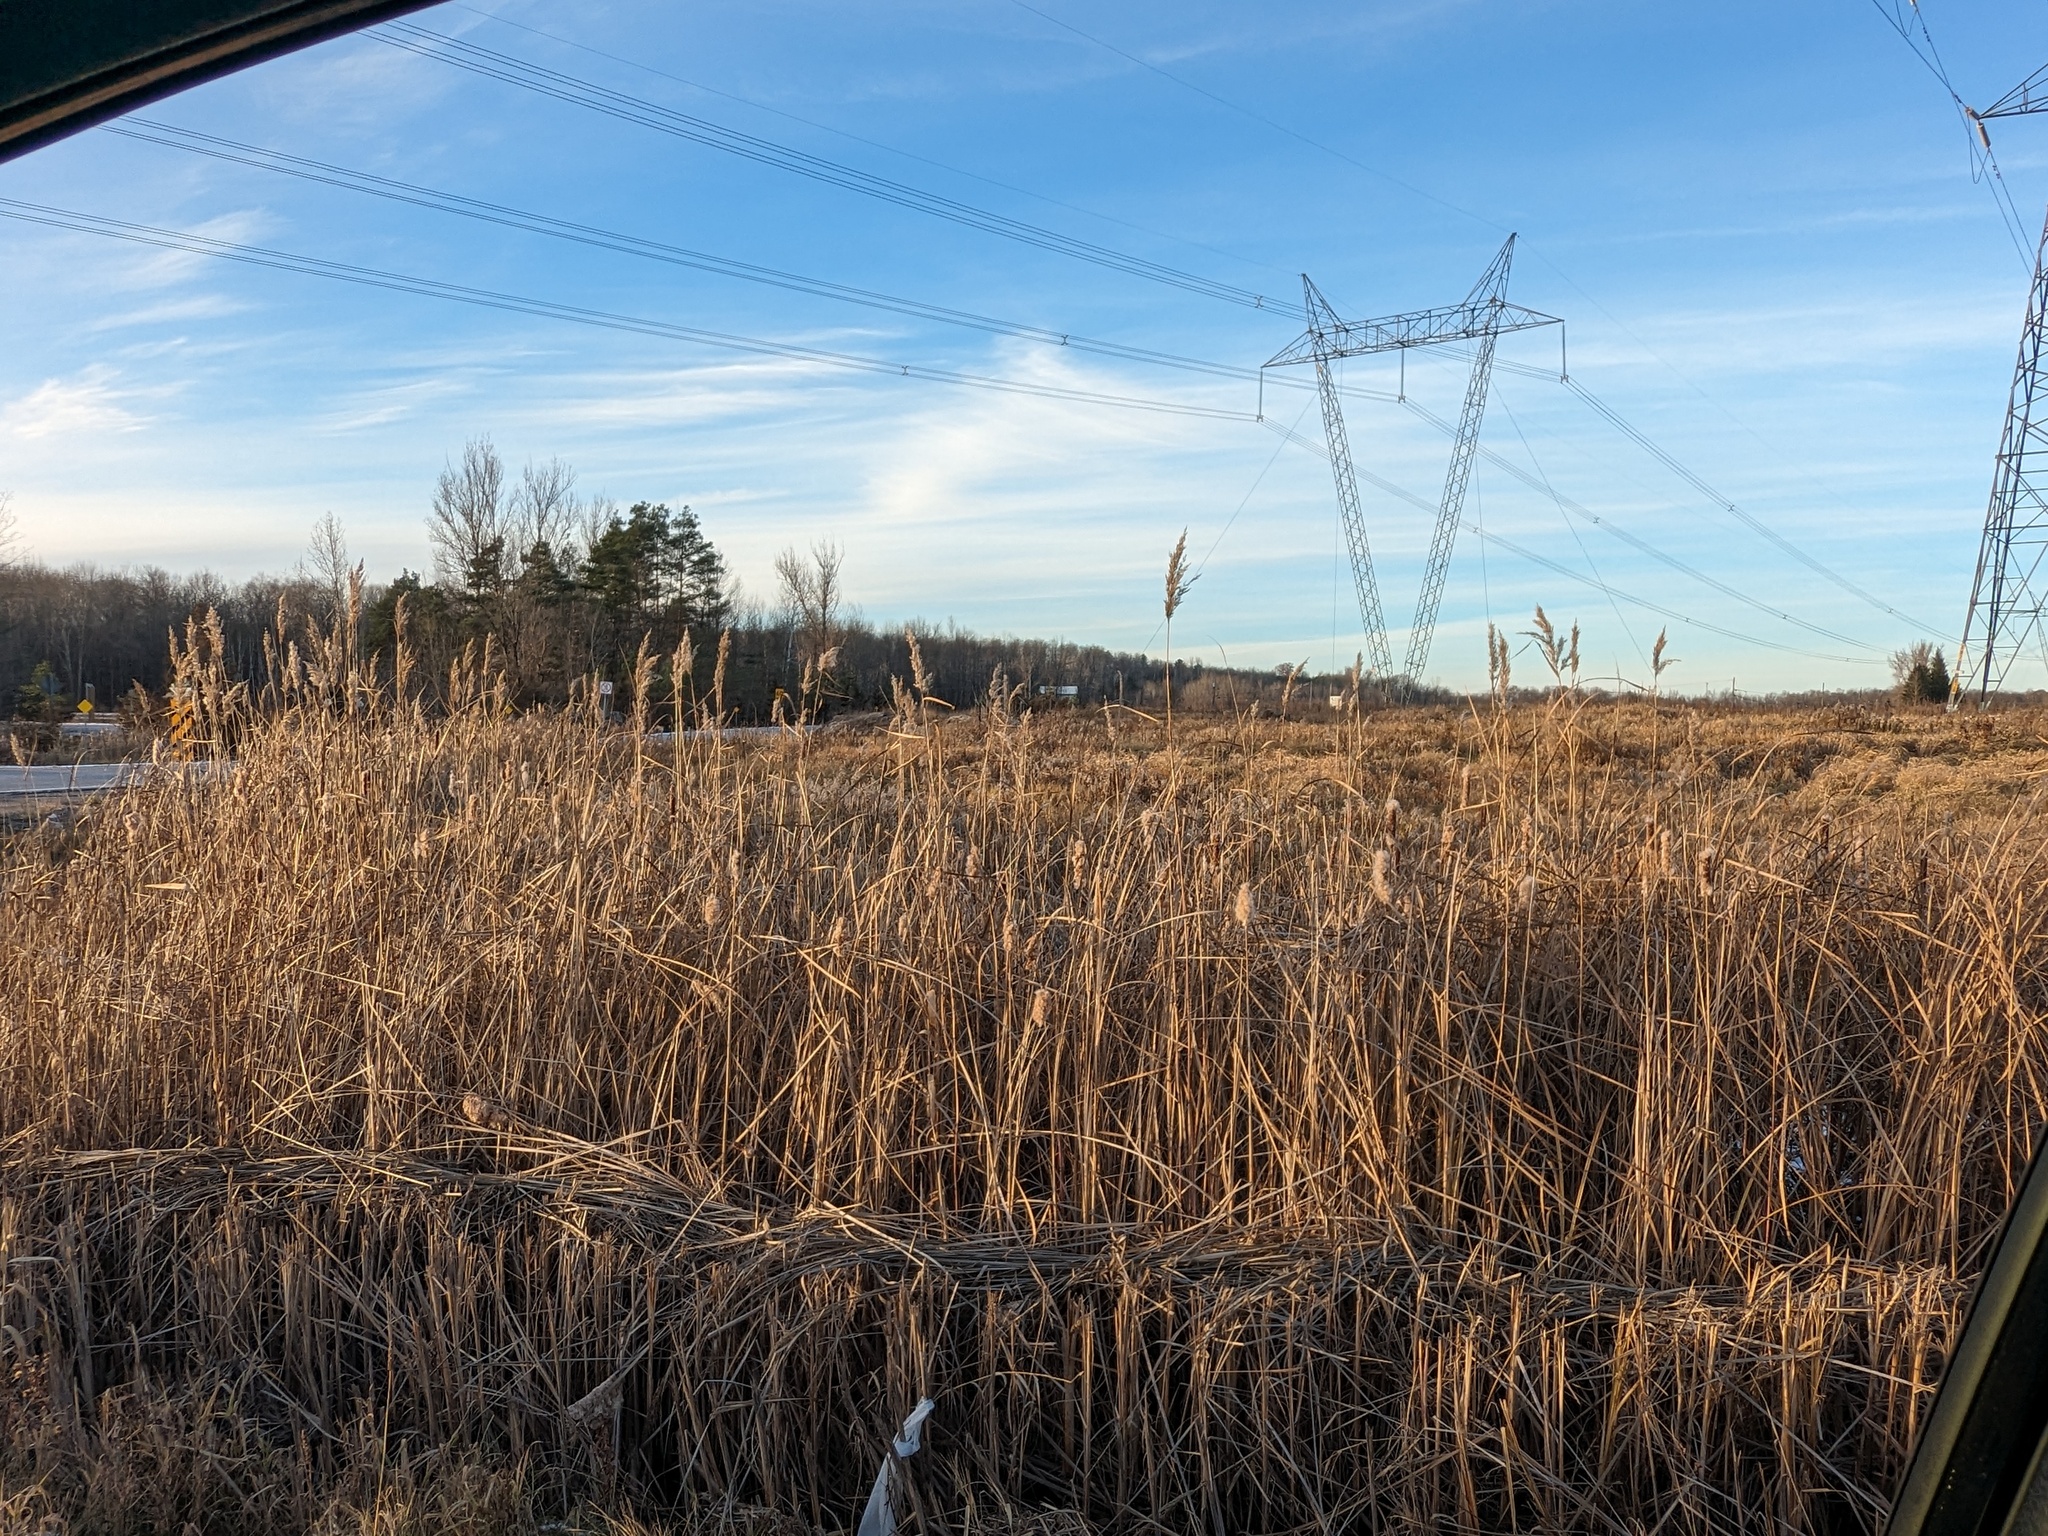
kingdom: Plantae
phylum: Tracheophyta
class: Liliopsida
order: Poales
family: Poaceae
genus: Phragmites
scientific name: Phragmites australis
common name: Common reed
